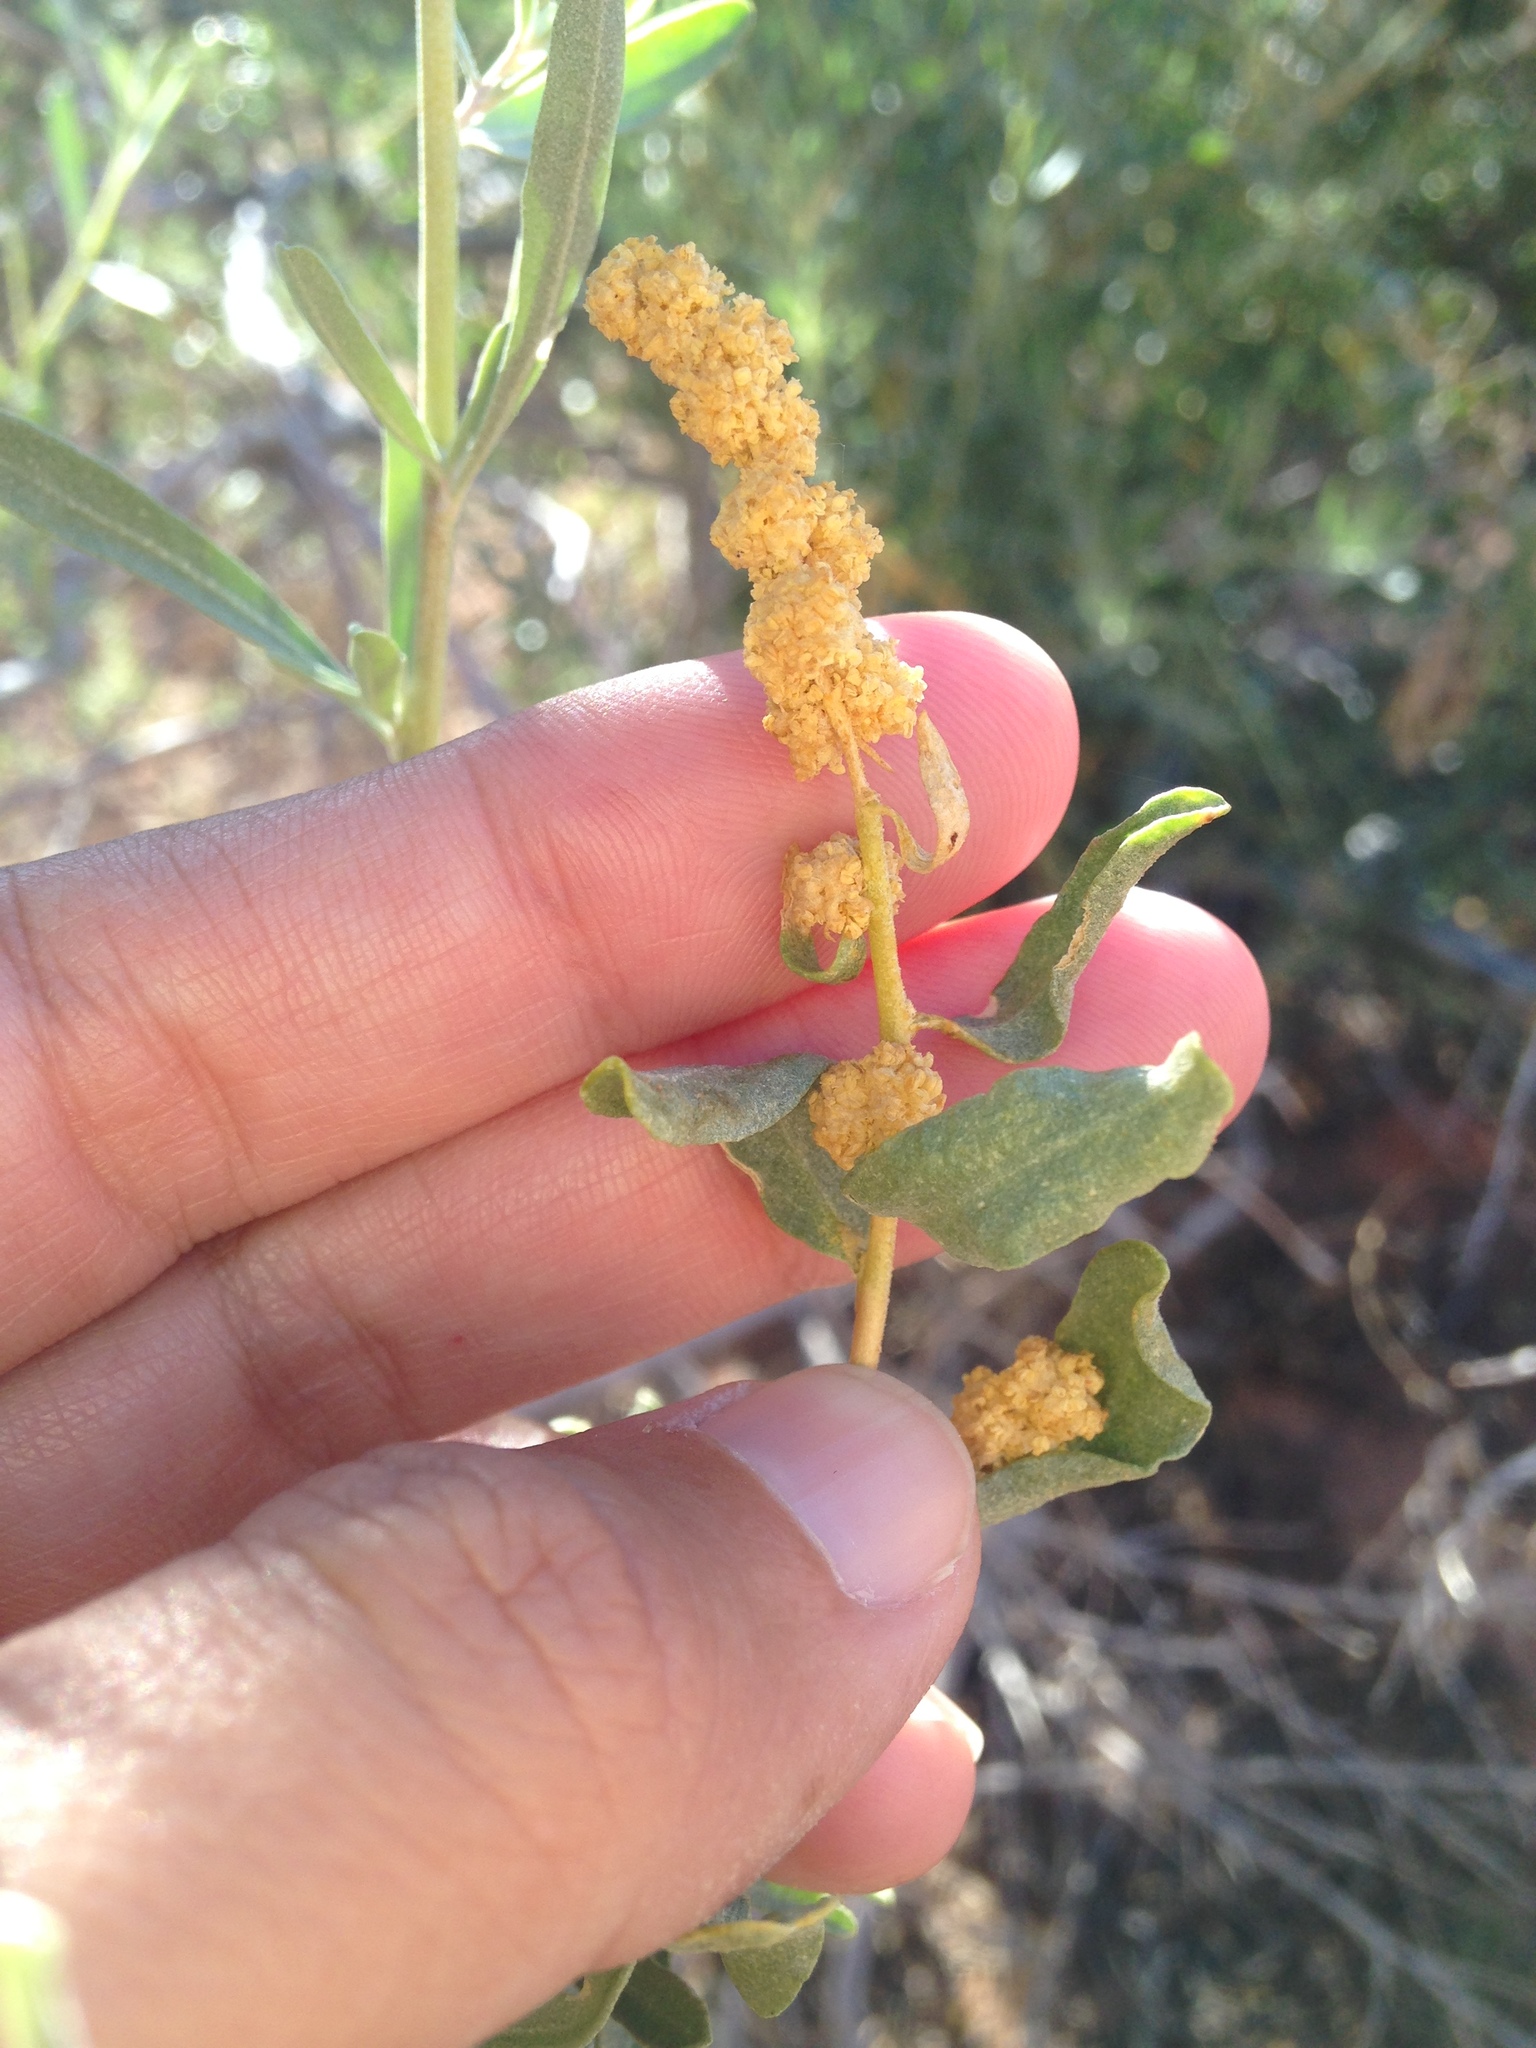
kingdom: Plantae
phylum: Tracheophyta
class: Magnoliopsida
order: Caryophyllales
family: Amaranthaceae
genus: Atriplex
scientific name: Atriplex canescens
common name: Four-wing saltbush
